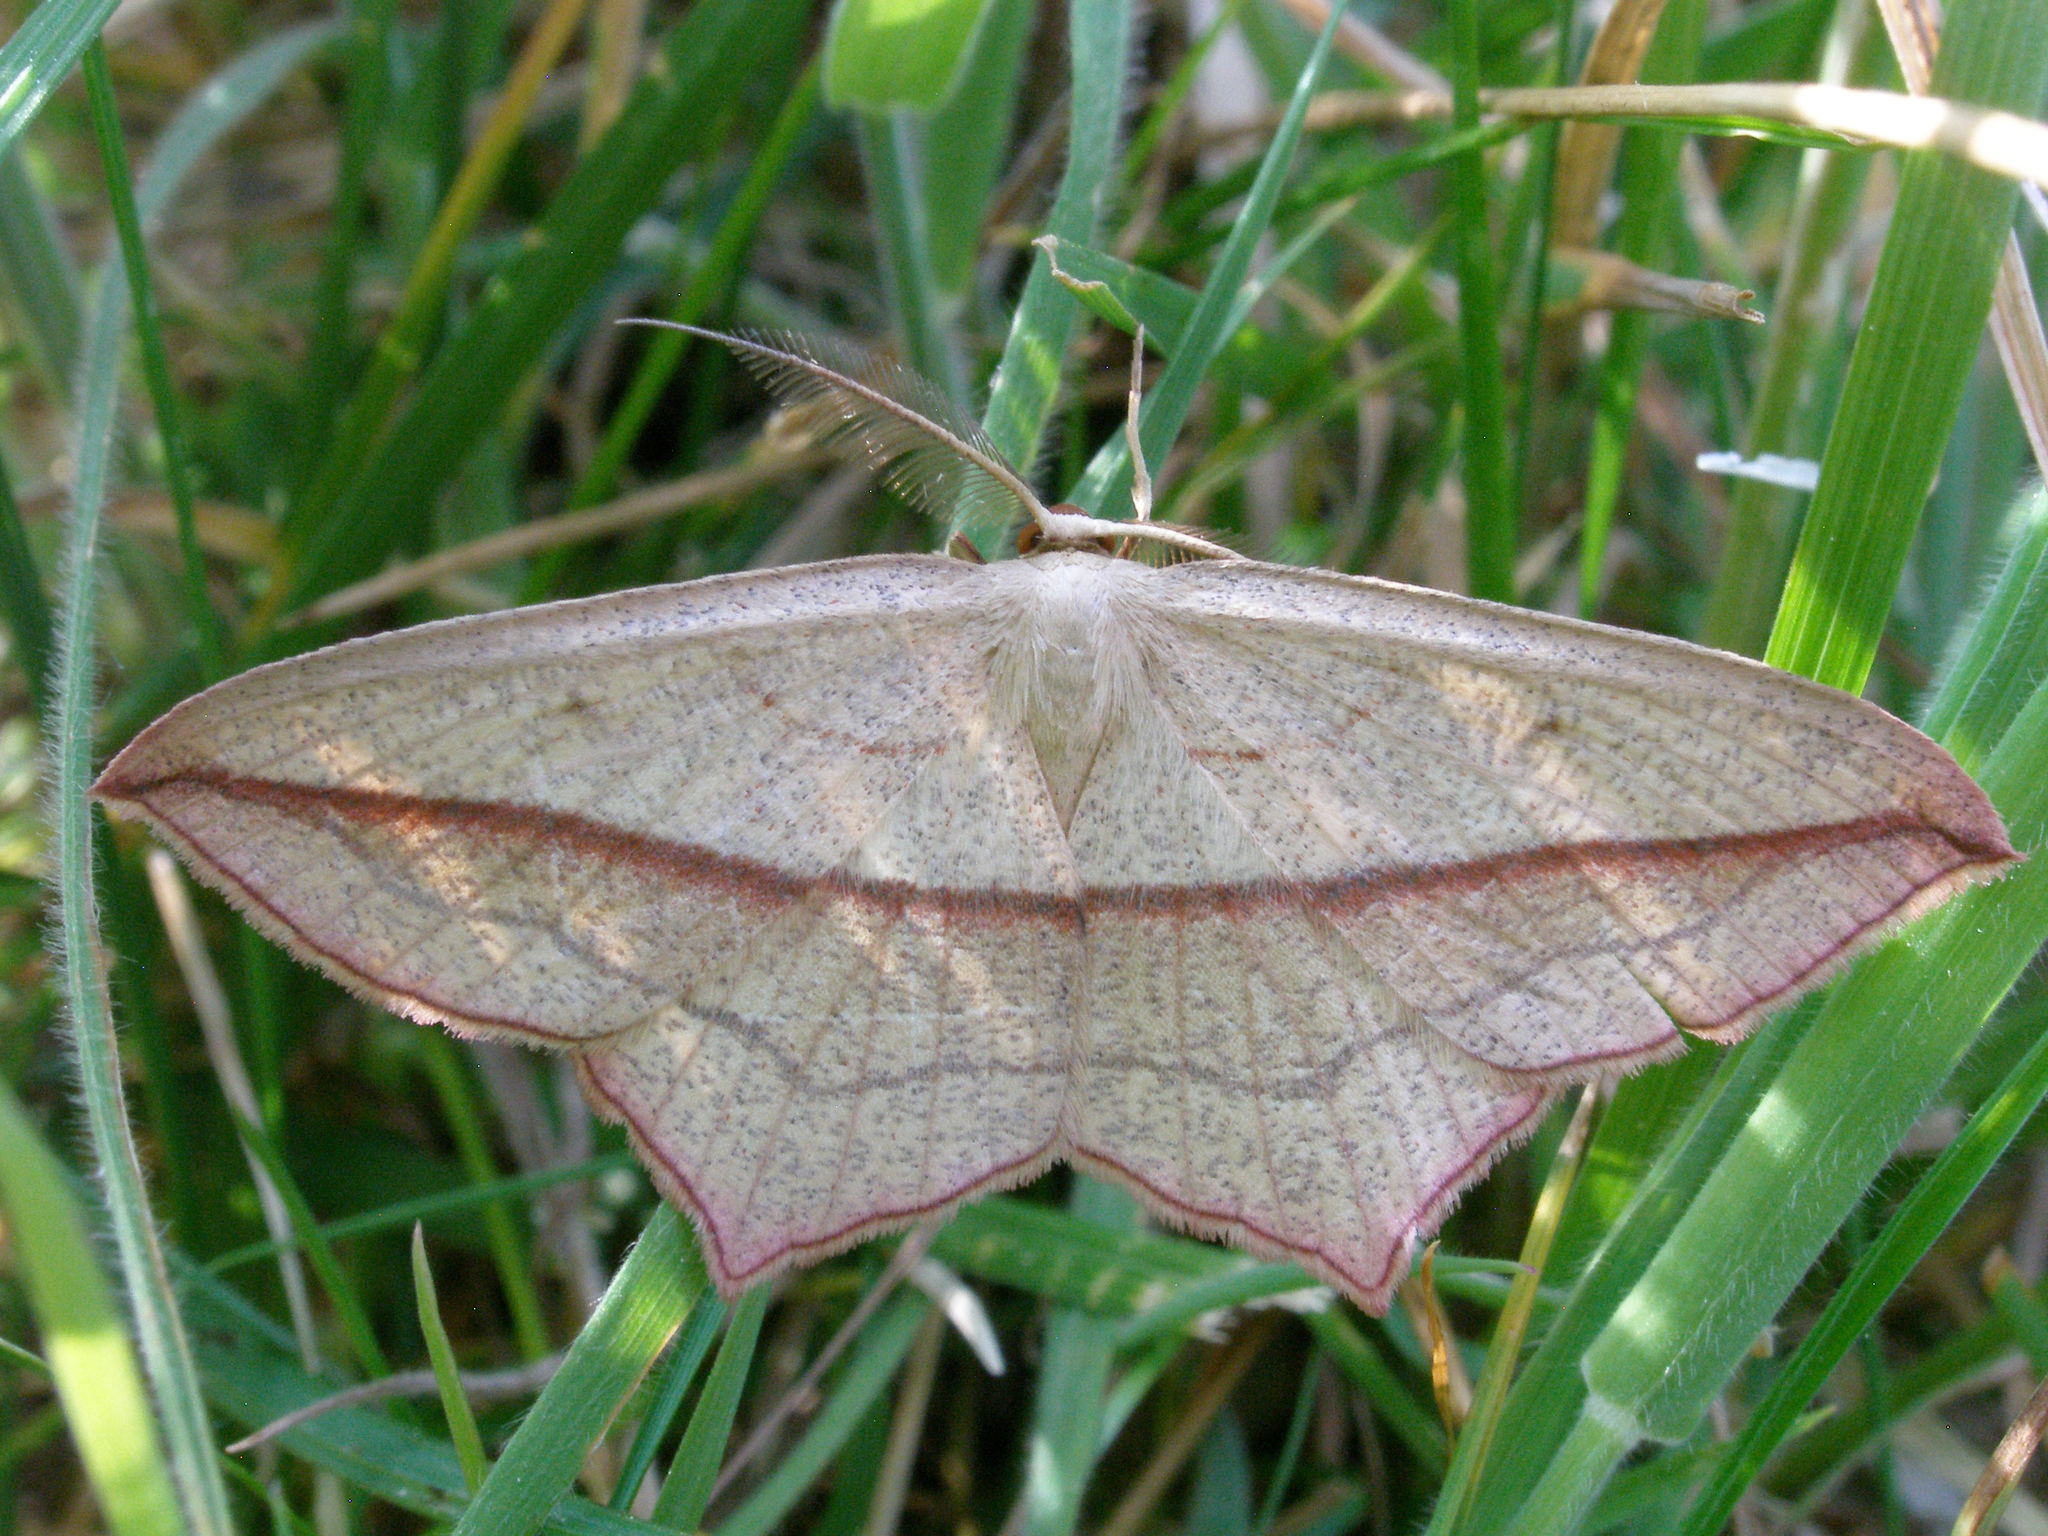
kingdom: Animalia
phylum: Arthropoda
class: Insecta
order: Lepidoptera
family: Geometridae
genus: Timandra
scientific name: Timandra comae
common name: Blood-vein
